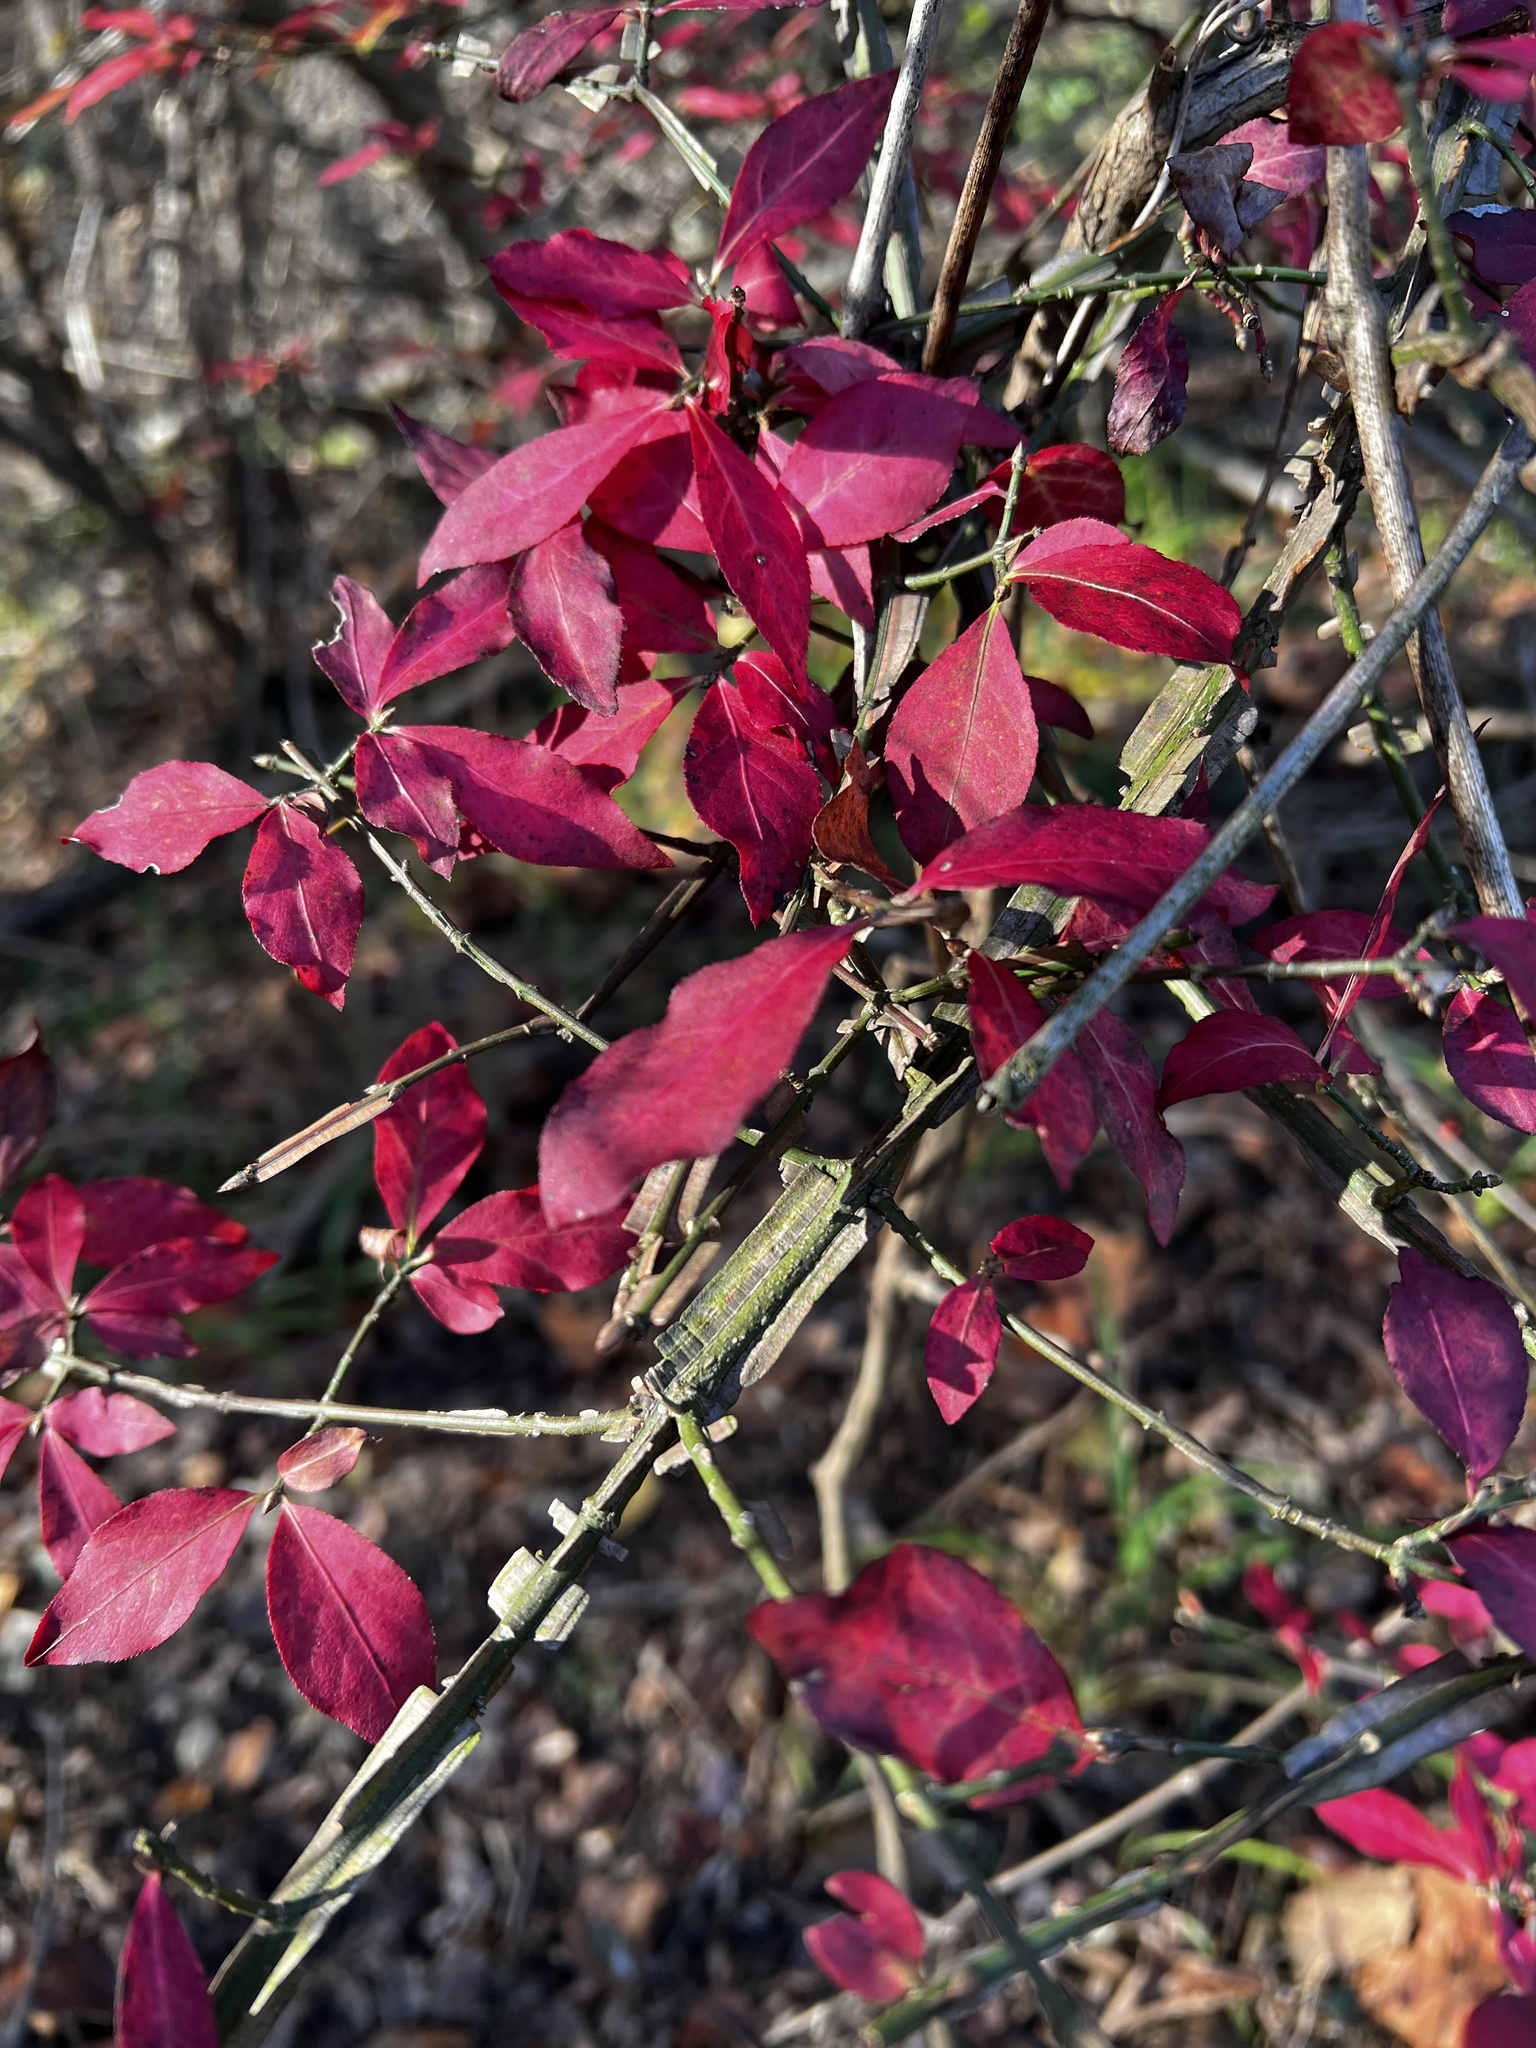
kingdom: Plantae
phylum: Tracheophyta
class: Magnoliopsida
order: Celastrales
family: Celastraceae
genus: Euonymus
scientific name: Euonymus alatus
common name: Winged euonymus
